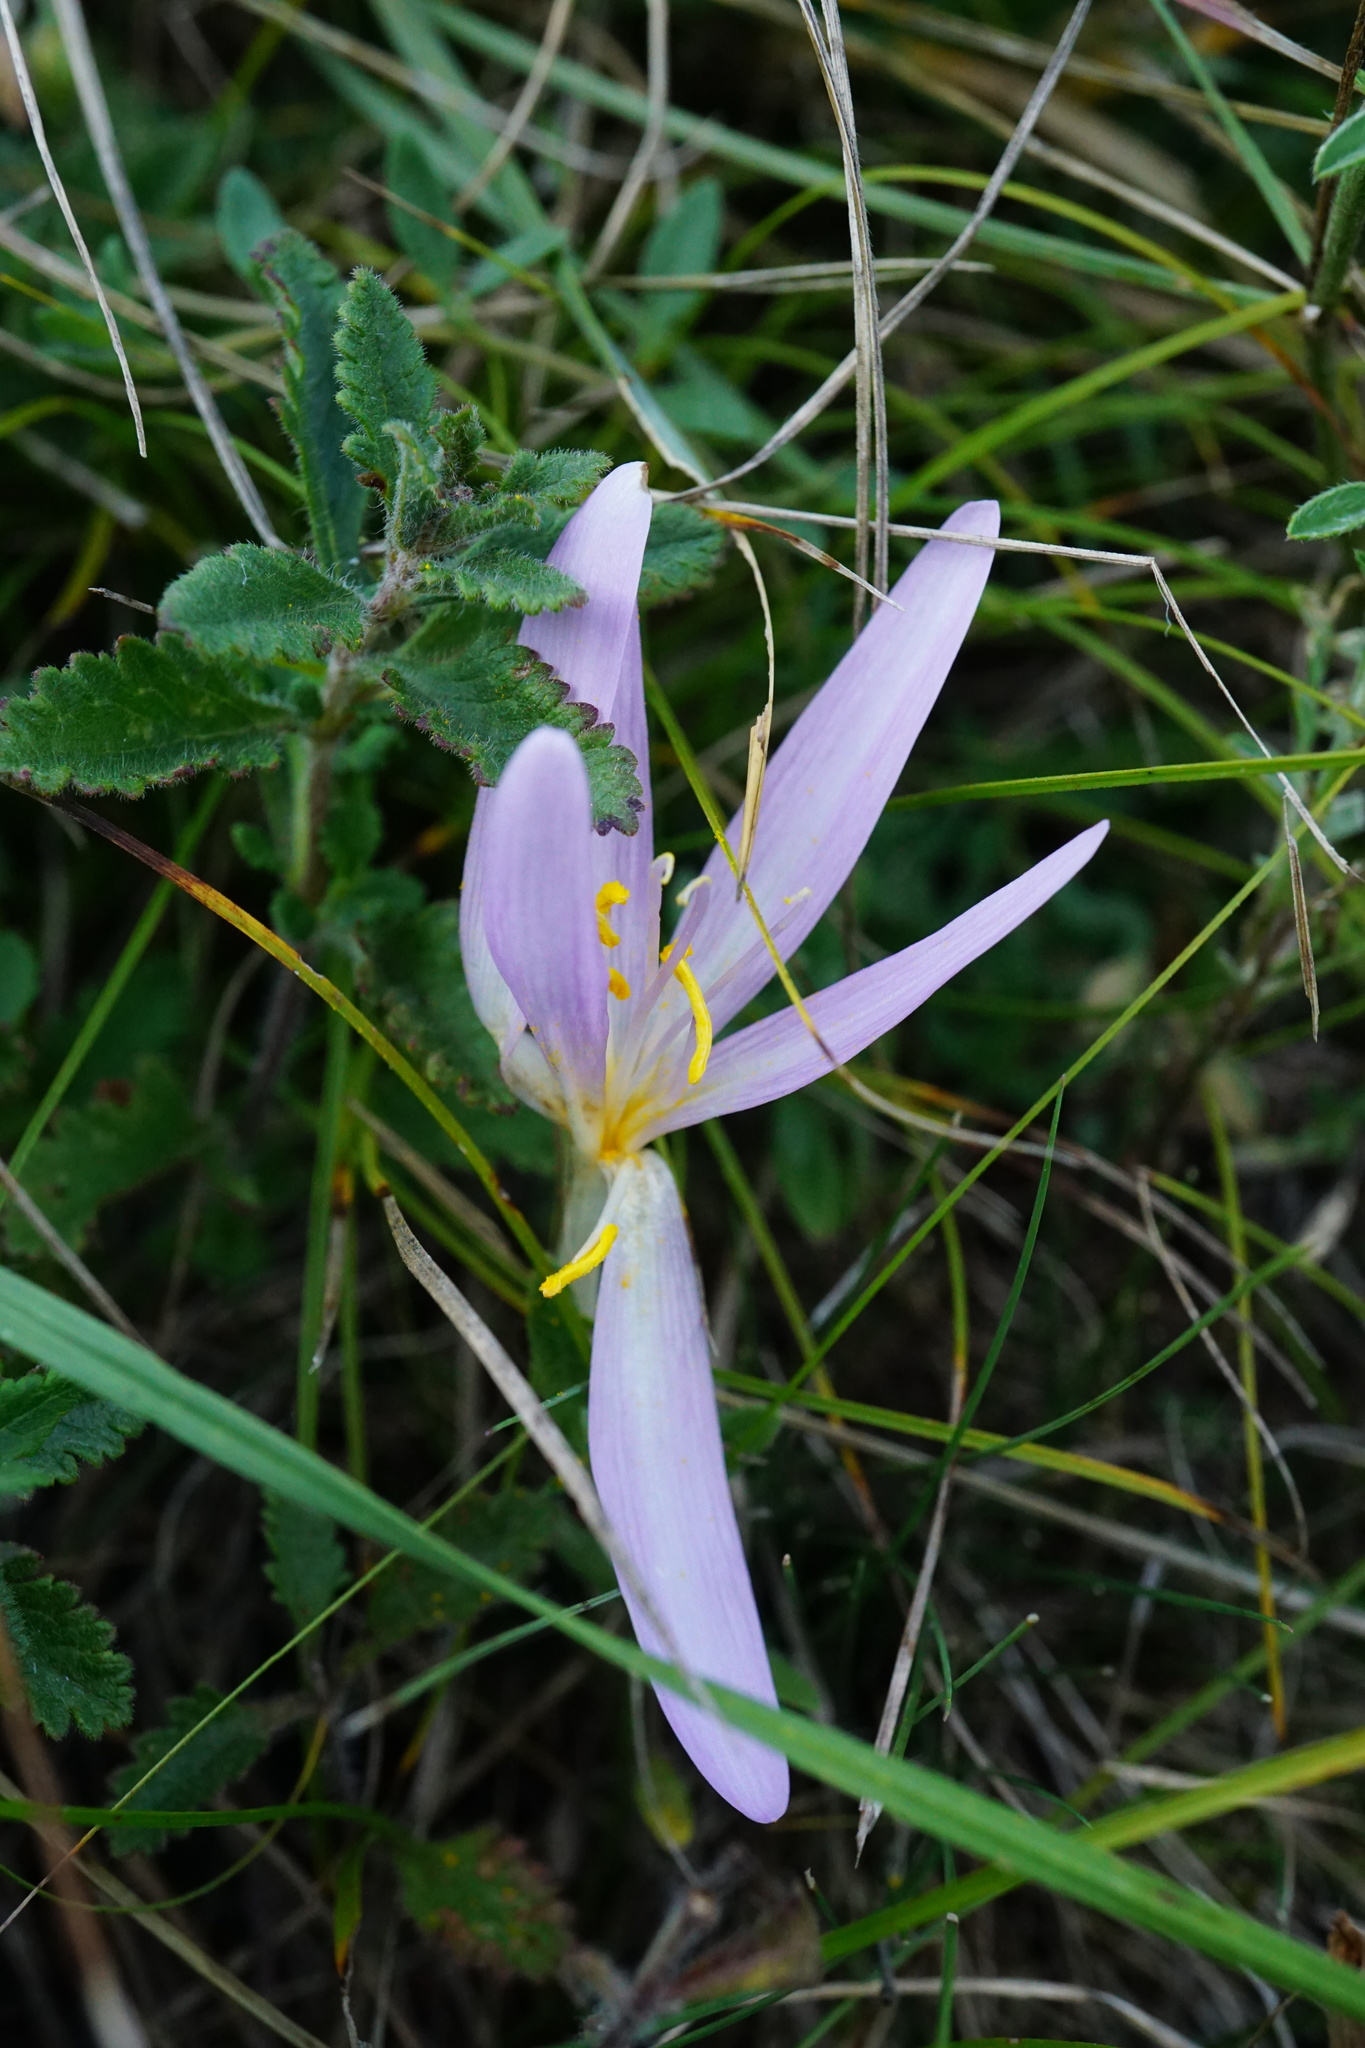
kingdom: Plantae
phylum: Tracheophyta
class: Liliopsida
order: Liliales
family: Colchicaceae
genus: Colchicum
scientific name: Colchicum autumnale
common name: Autumn crocus
